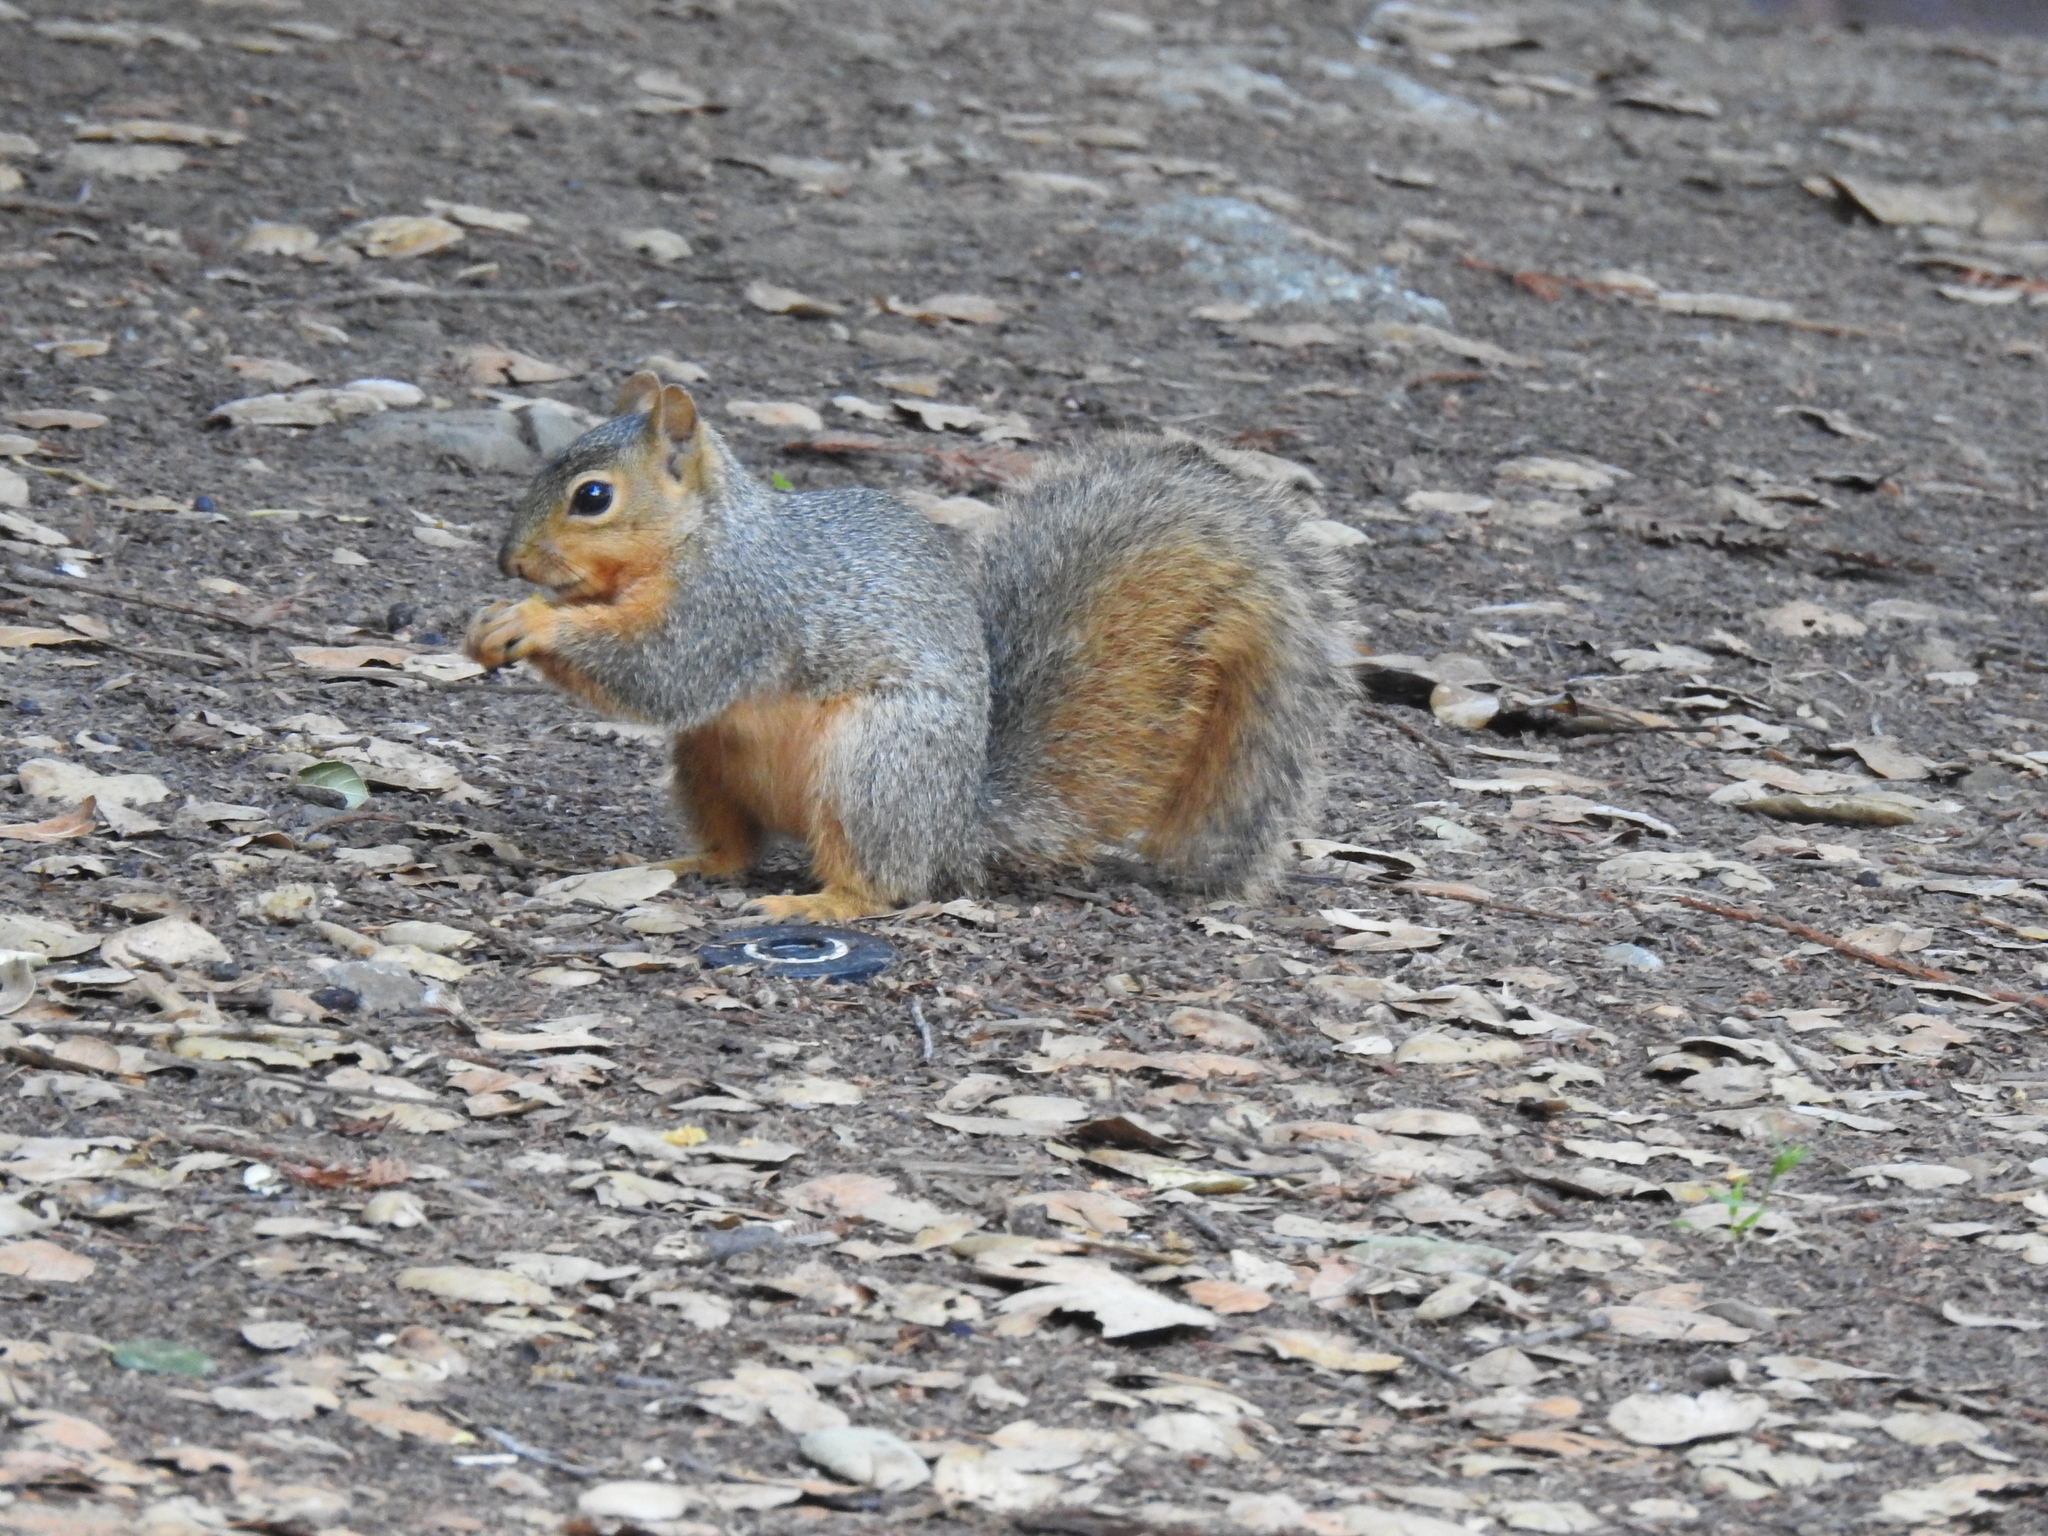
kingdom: Animalia
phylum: Chordata
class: Mammalia
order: Rodentia
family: Sciuridae
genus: Sciurus
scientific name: Sciurus niger
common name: Fox squirrel
